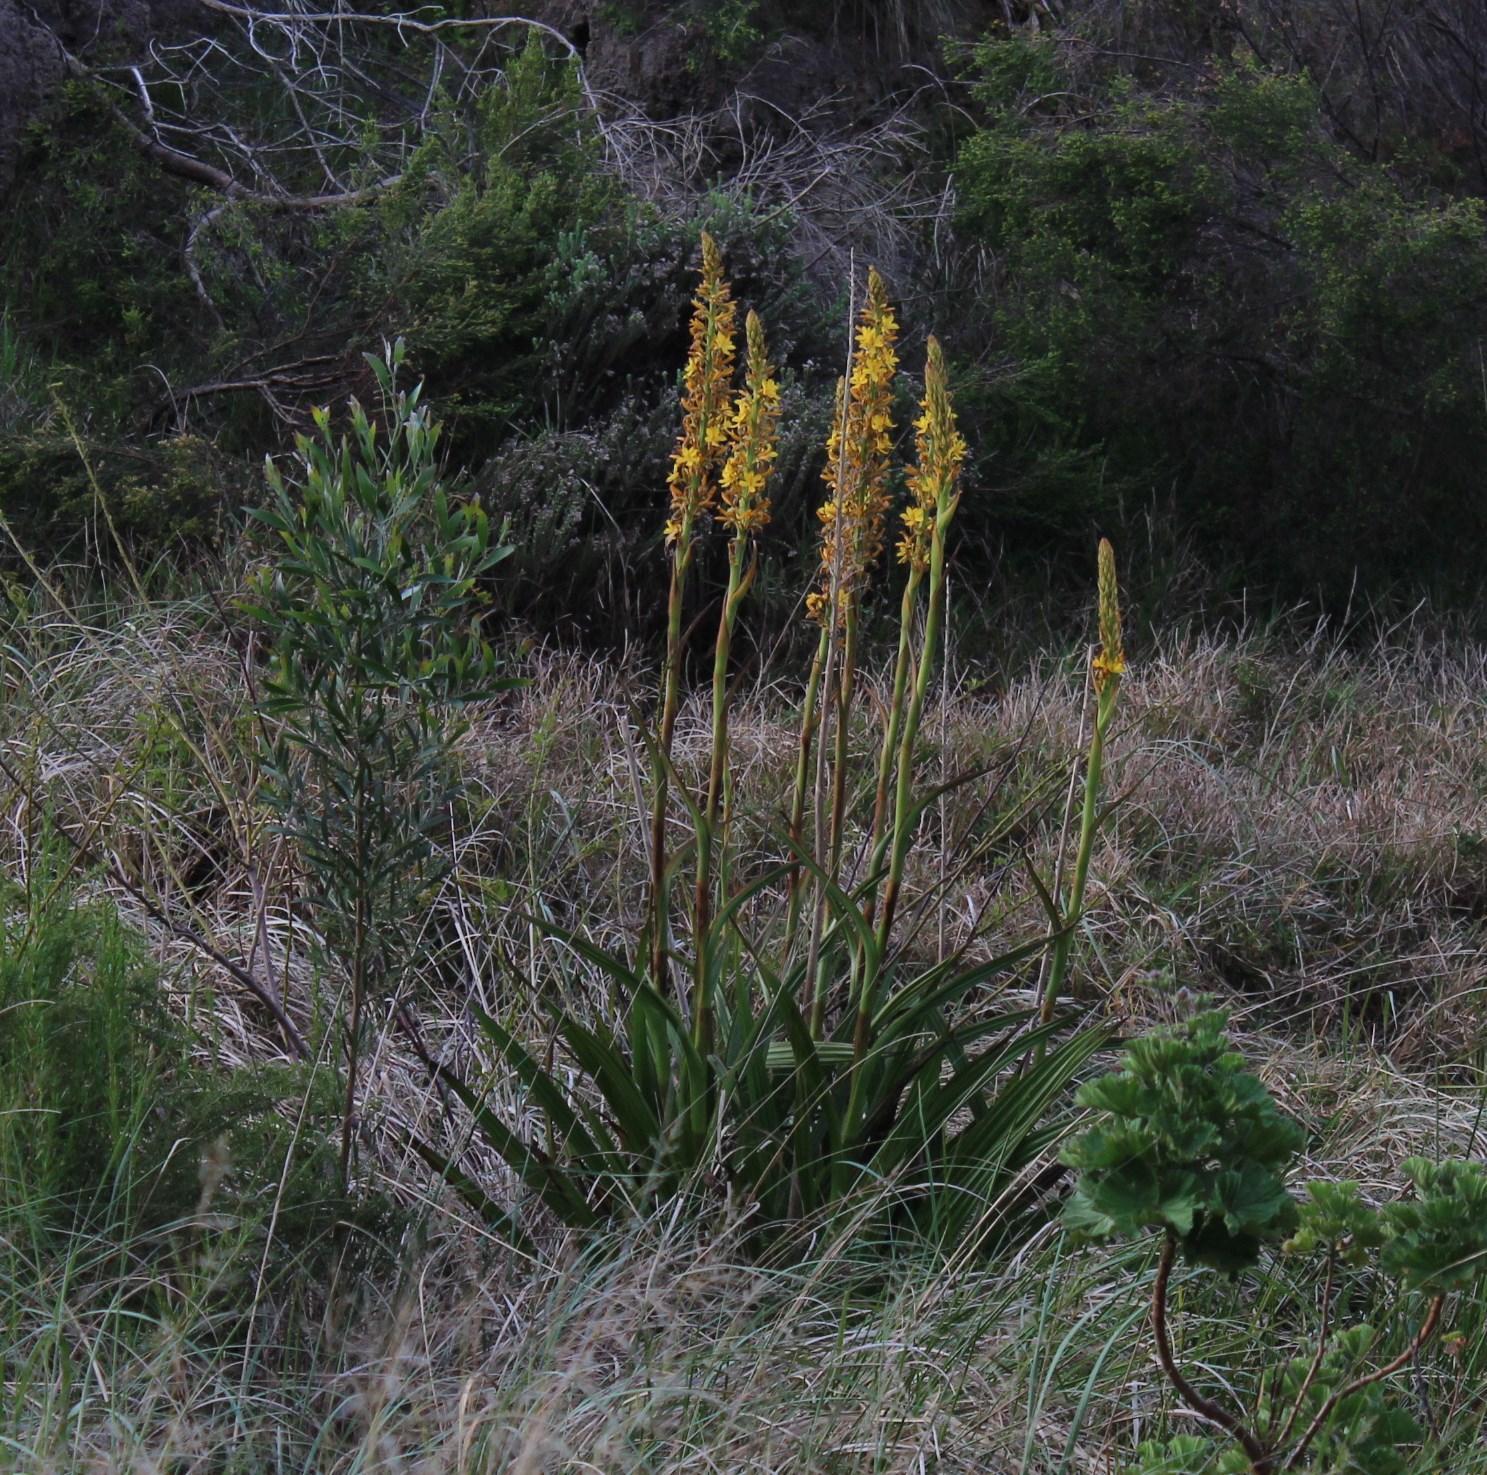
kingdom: Plantae
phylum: Tracheophyta
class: Liliopsida
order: Commelinales
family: Haemodoraceae
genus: Wachendorfia
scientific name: Wachendorfia thyrsiflora
